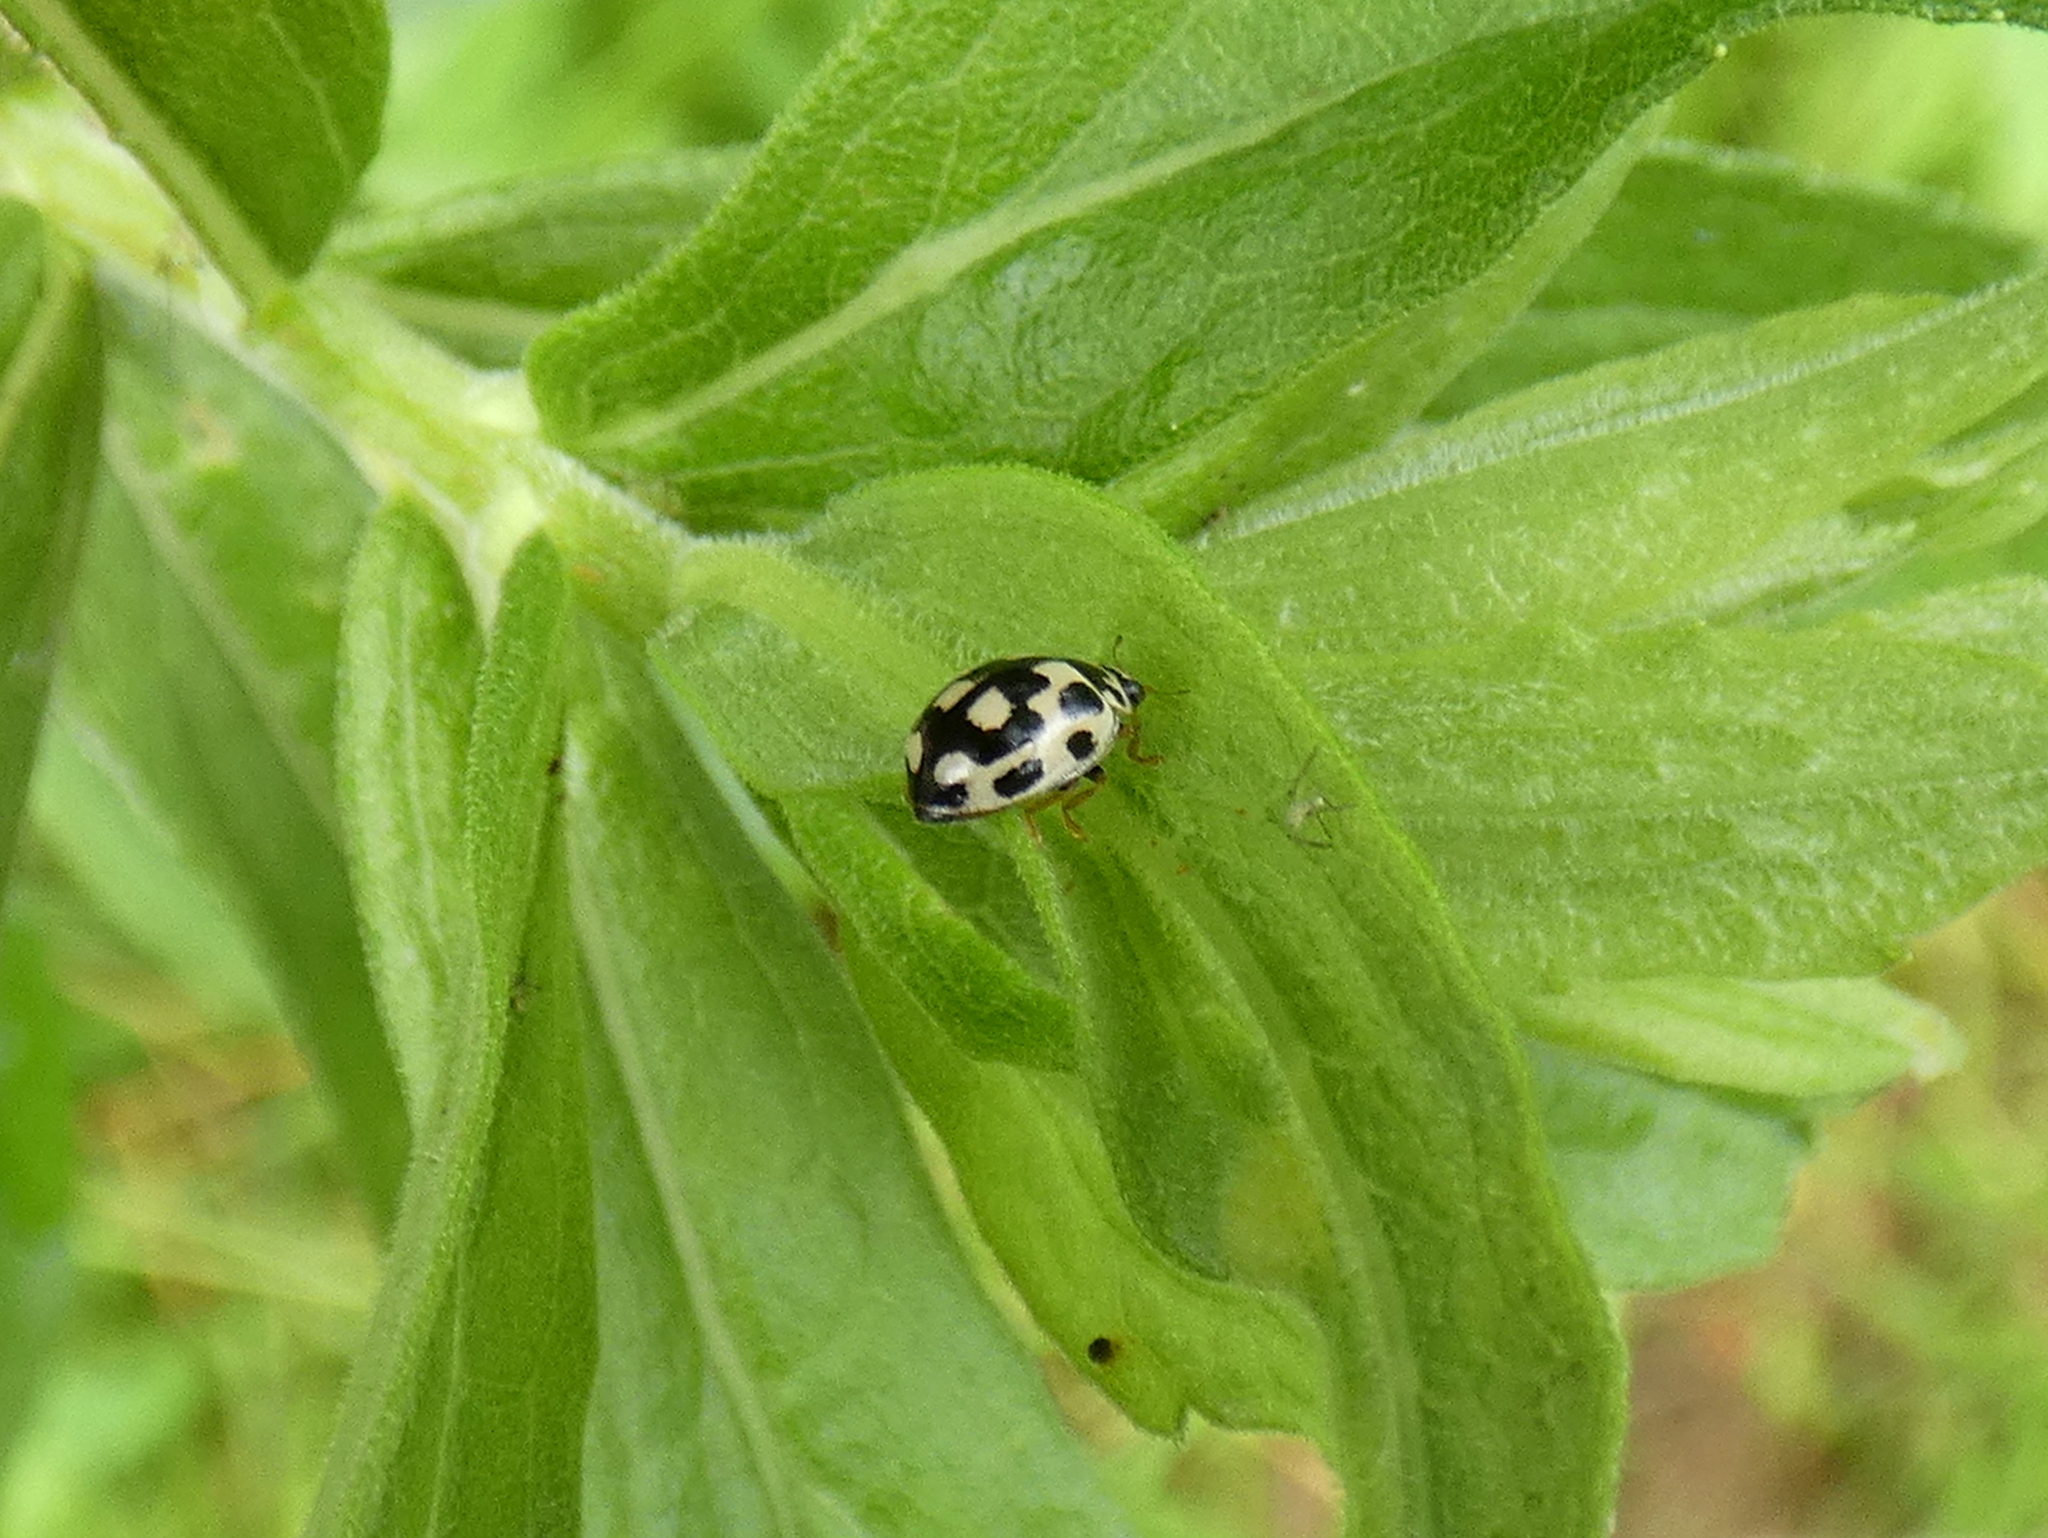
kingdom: Animalia
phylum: Arthropoda
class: Insecta
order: Coleoptera
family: Coccinellidae
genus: Propylaea
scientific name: Propylaea quatuordecimpunctata
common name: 14-spotted ladybird beetle
